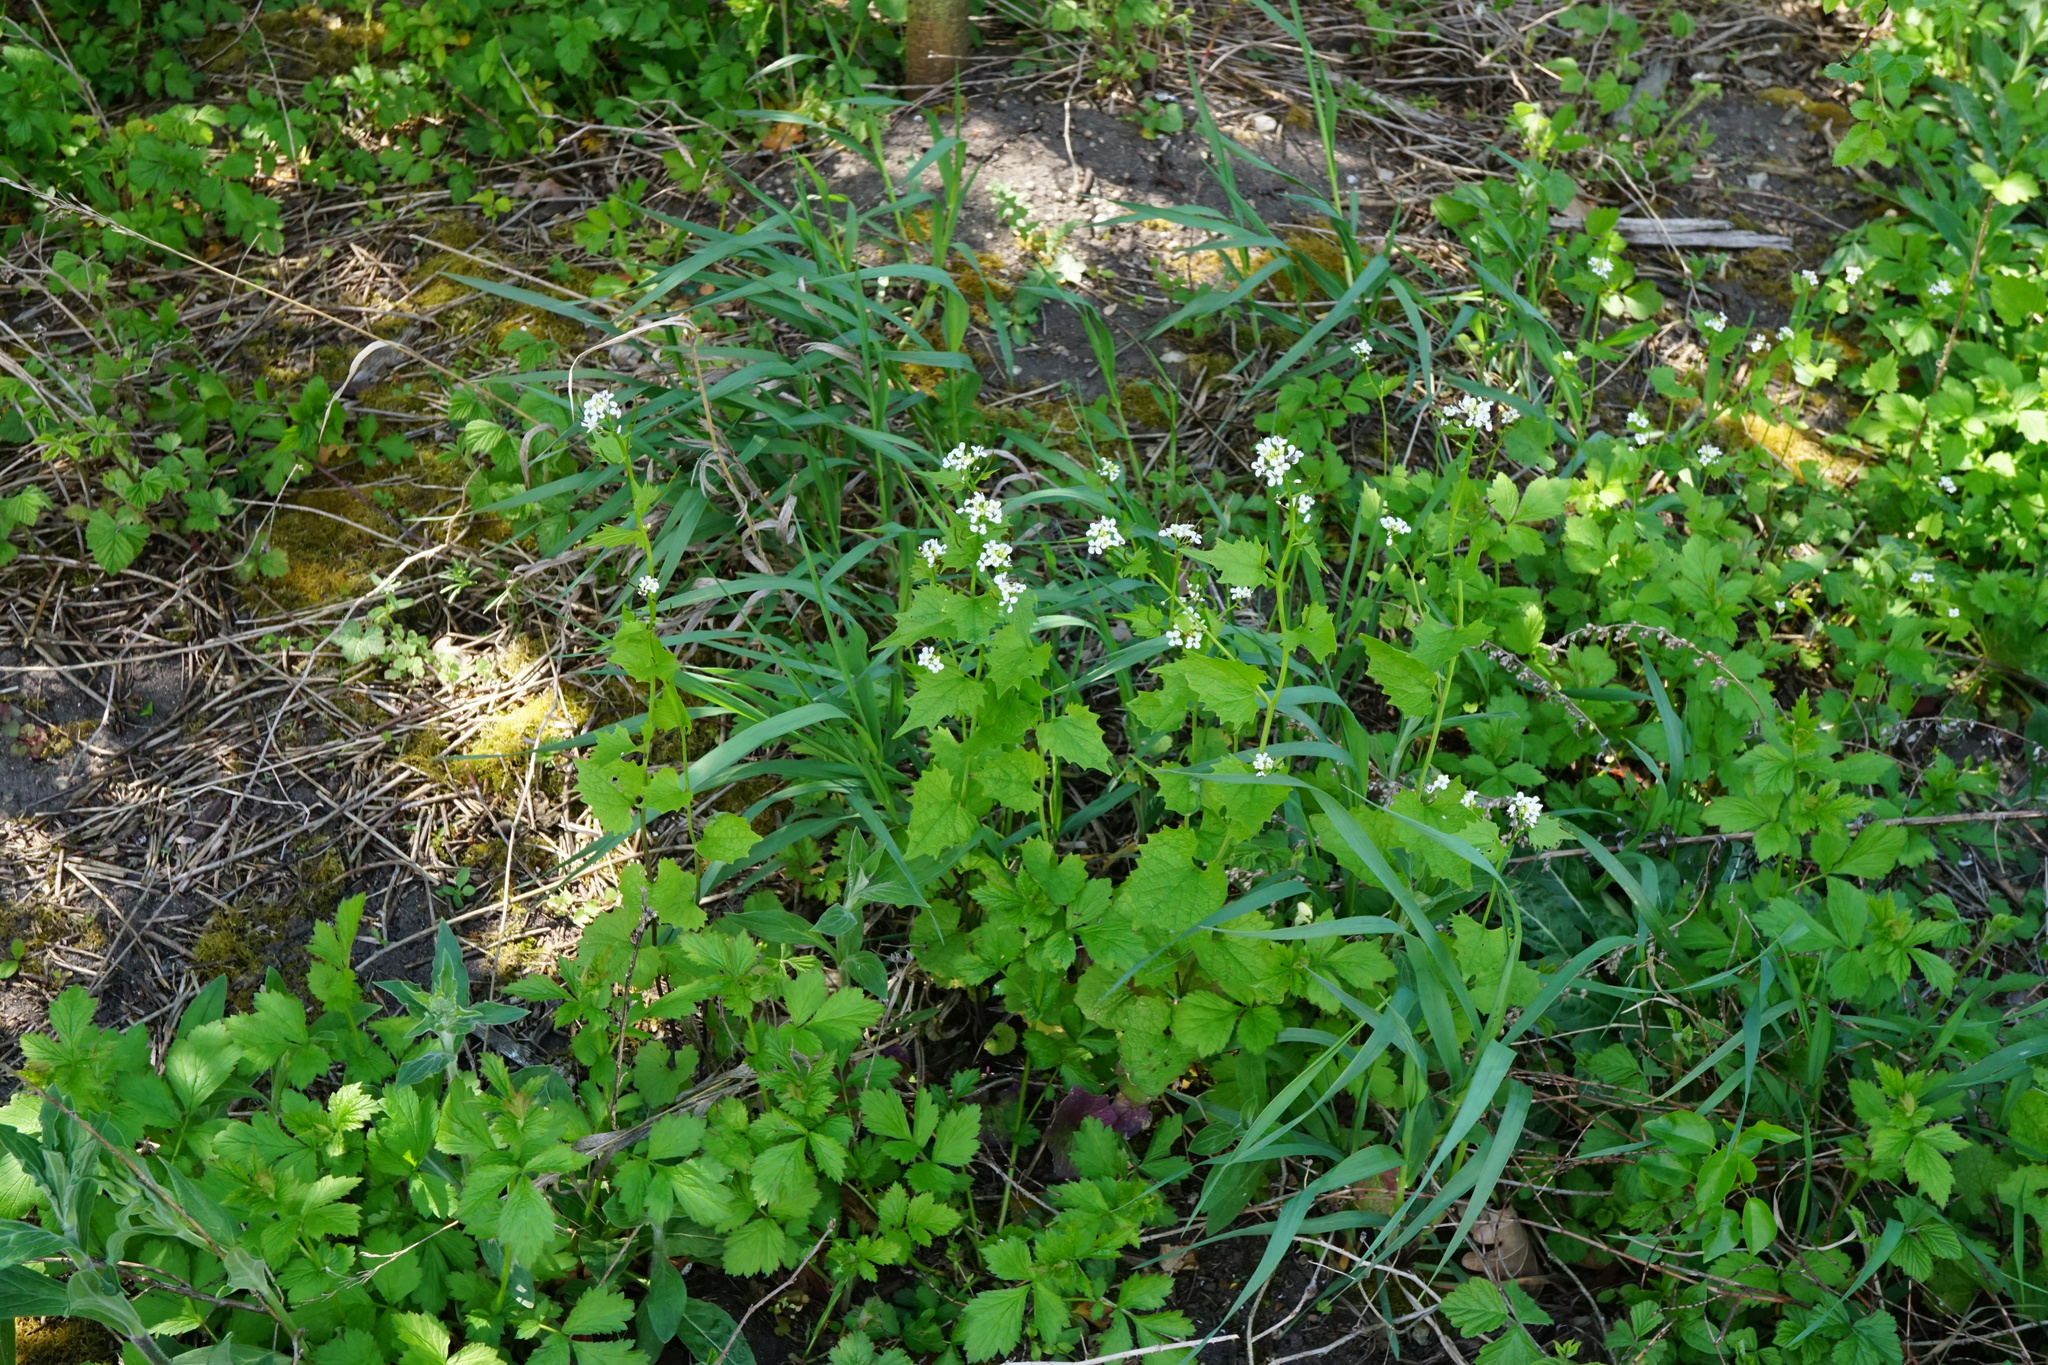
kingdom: Plantae
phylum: Tracheophyta
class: Magnoliopsida
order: Brassicales
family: Brassicaceae
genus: Alliaria
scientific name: Alliaria petiolata
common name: Garlic mustard
